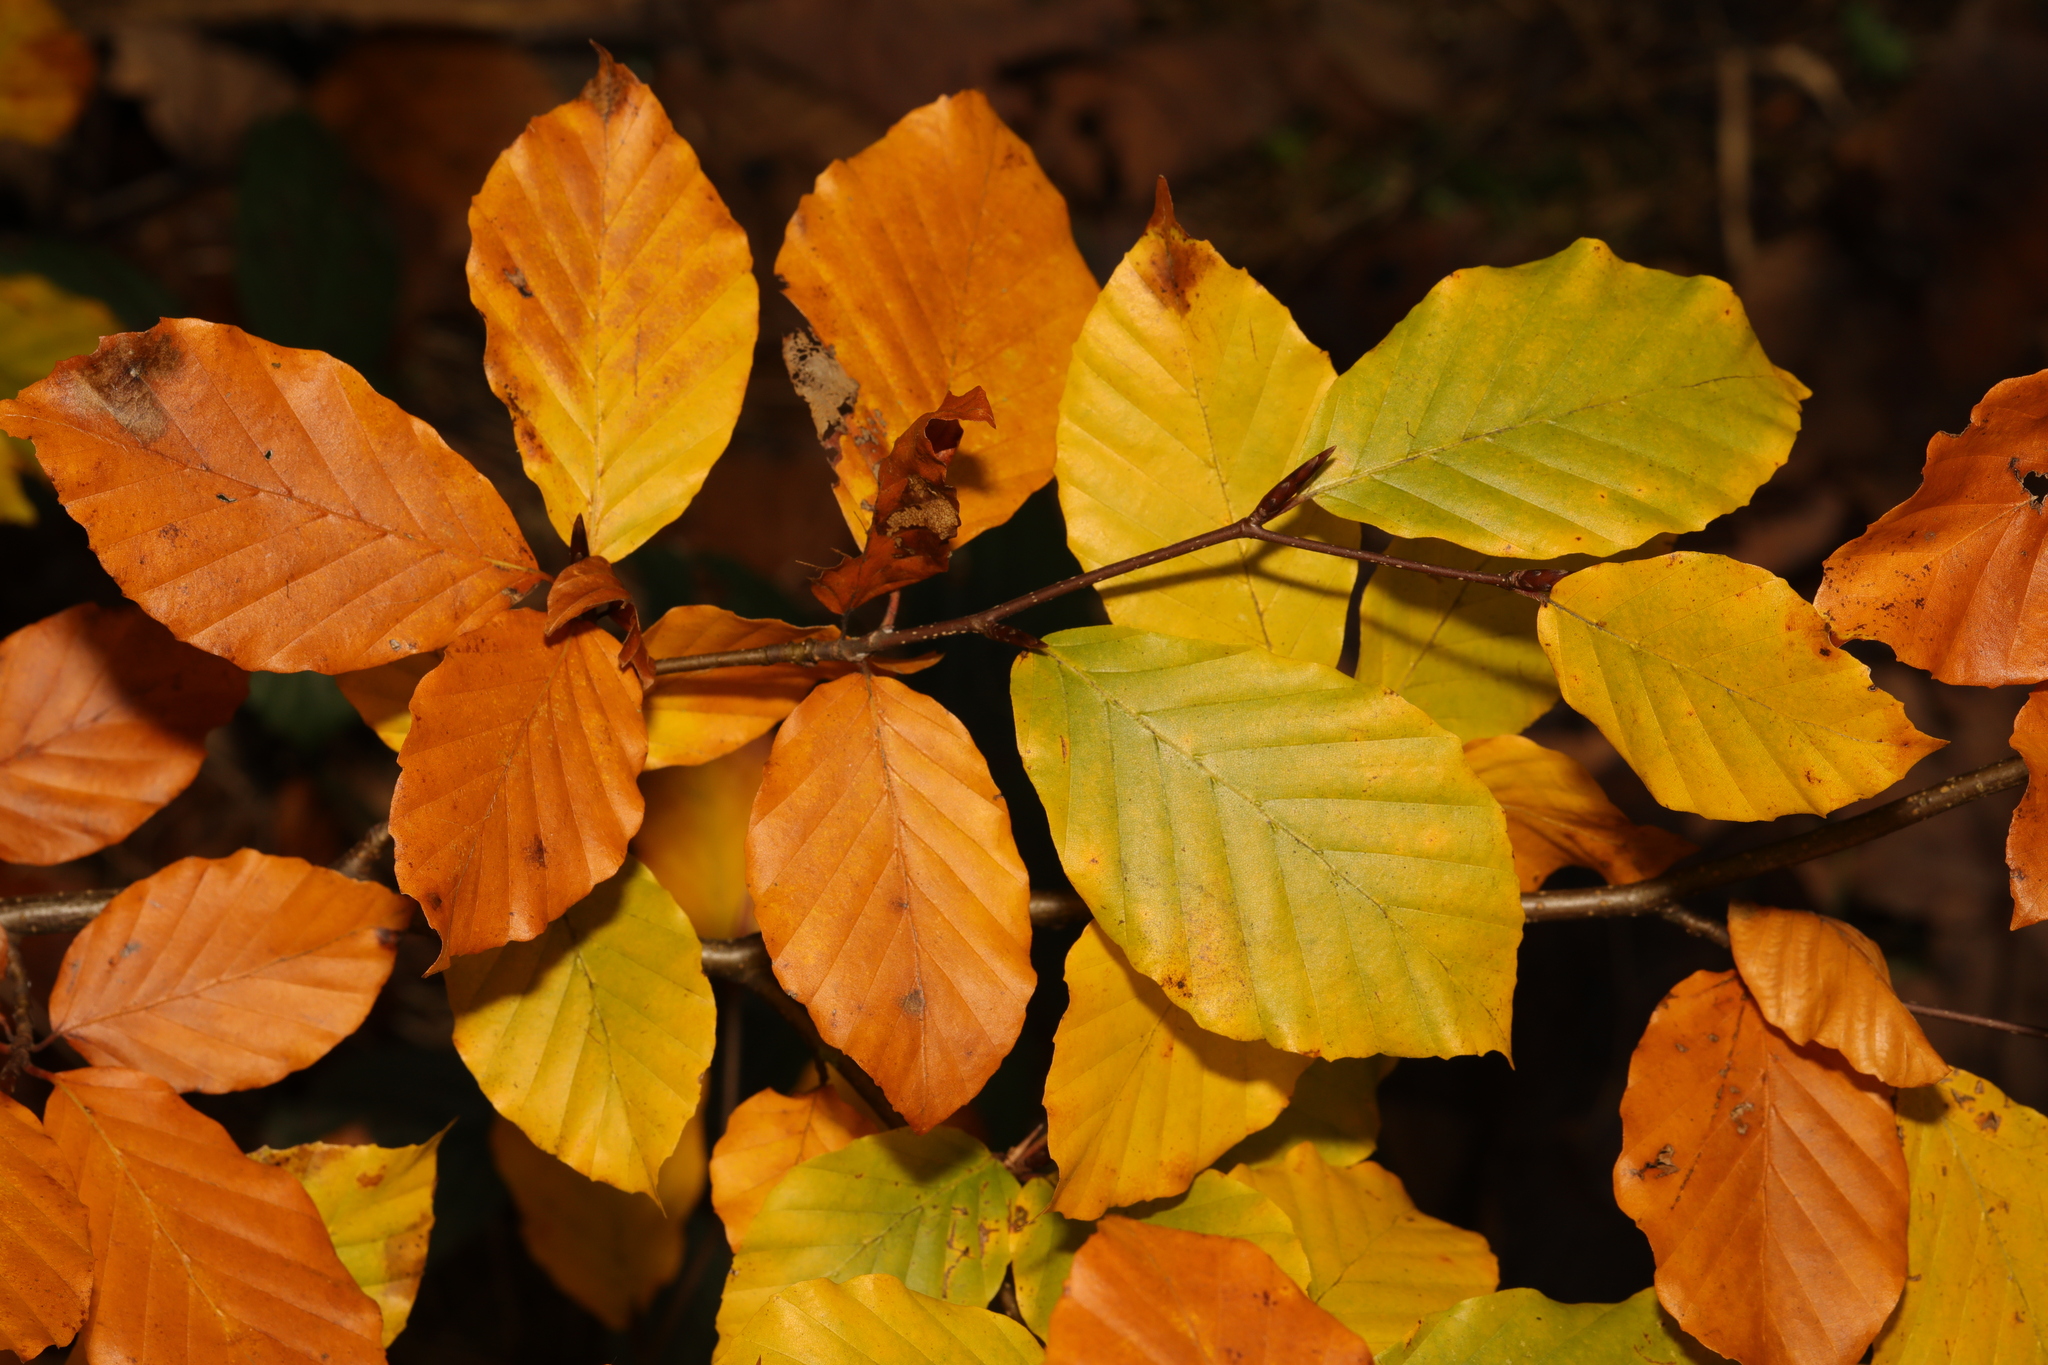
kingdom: Plantae
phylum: Tracheophyta
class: Magnoliopsida
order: Fagales
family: Fagaceae
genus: Fagus
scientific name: Fagus sylvatica
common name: Beech
